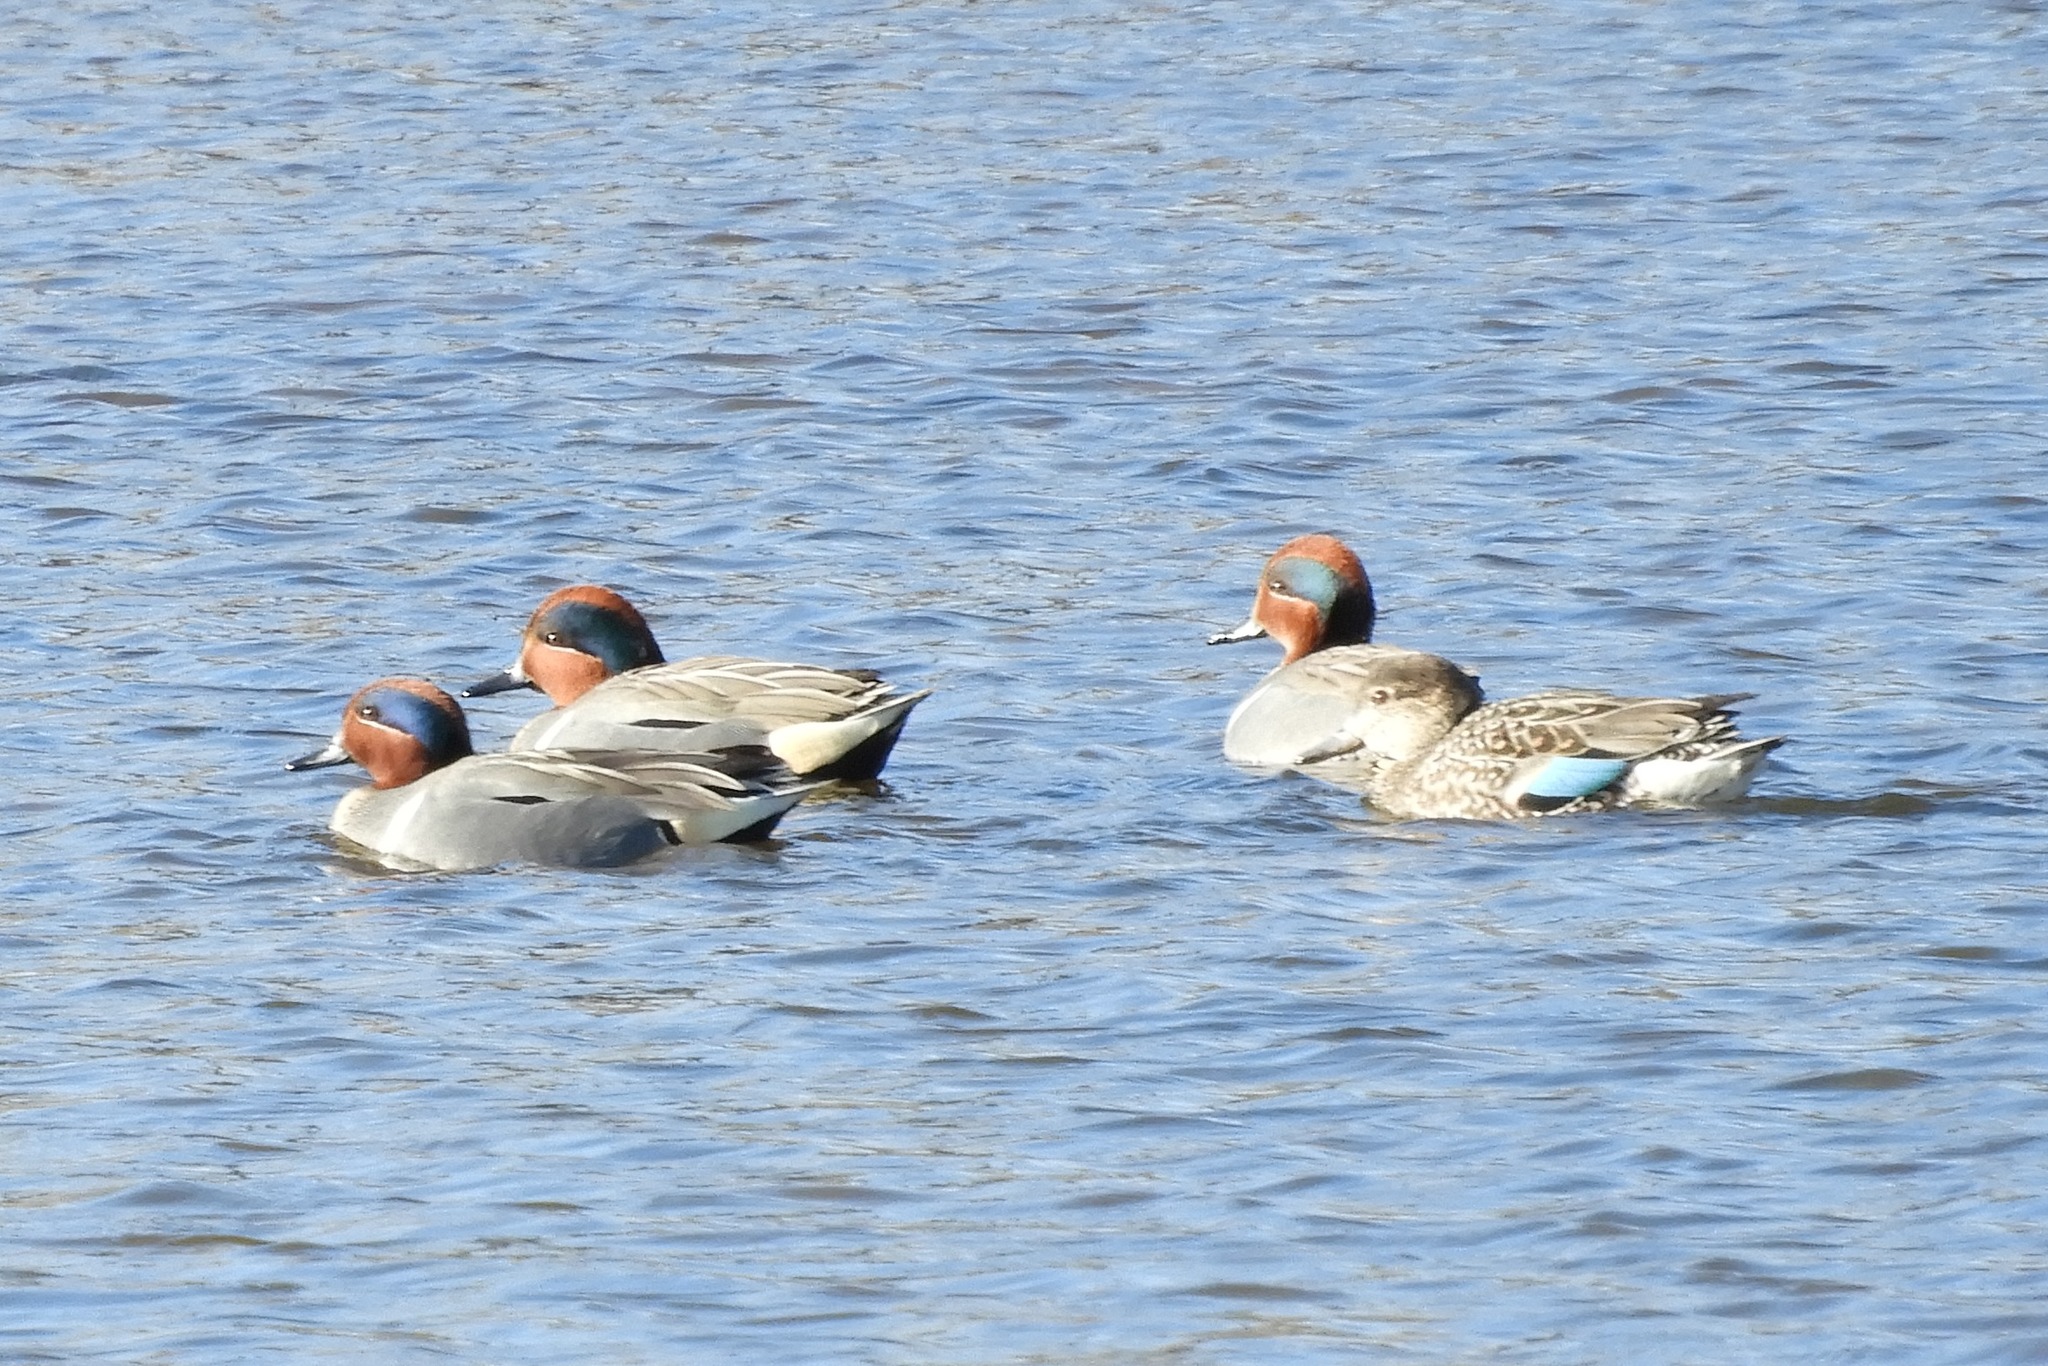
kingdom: Animalia
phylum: Chordata
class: Aves
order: Anseriformes
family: Anatidae
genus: Anas
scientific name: Anas crecca
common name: Eurasian teal
